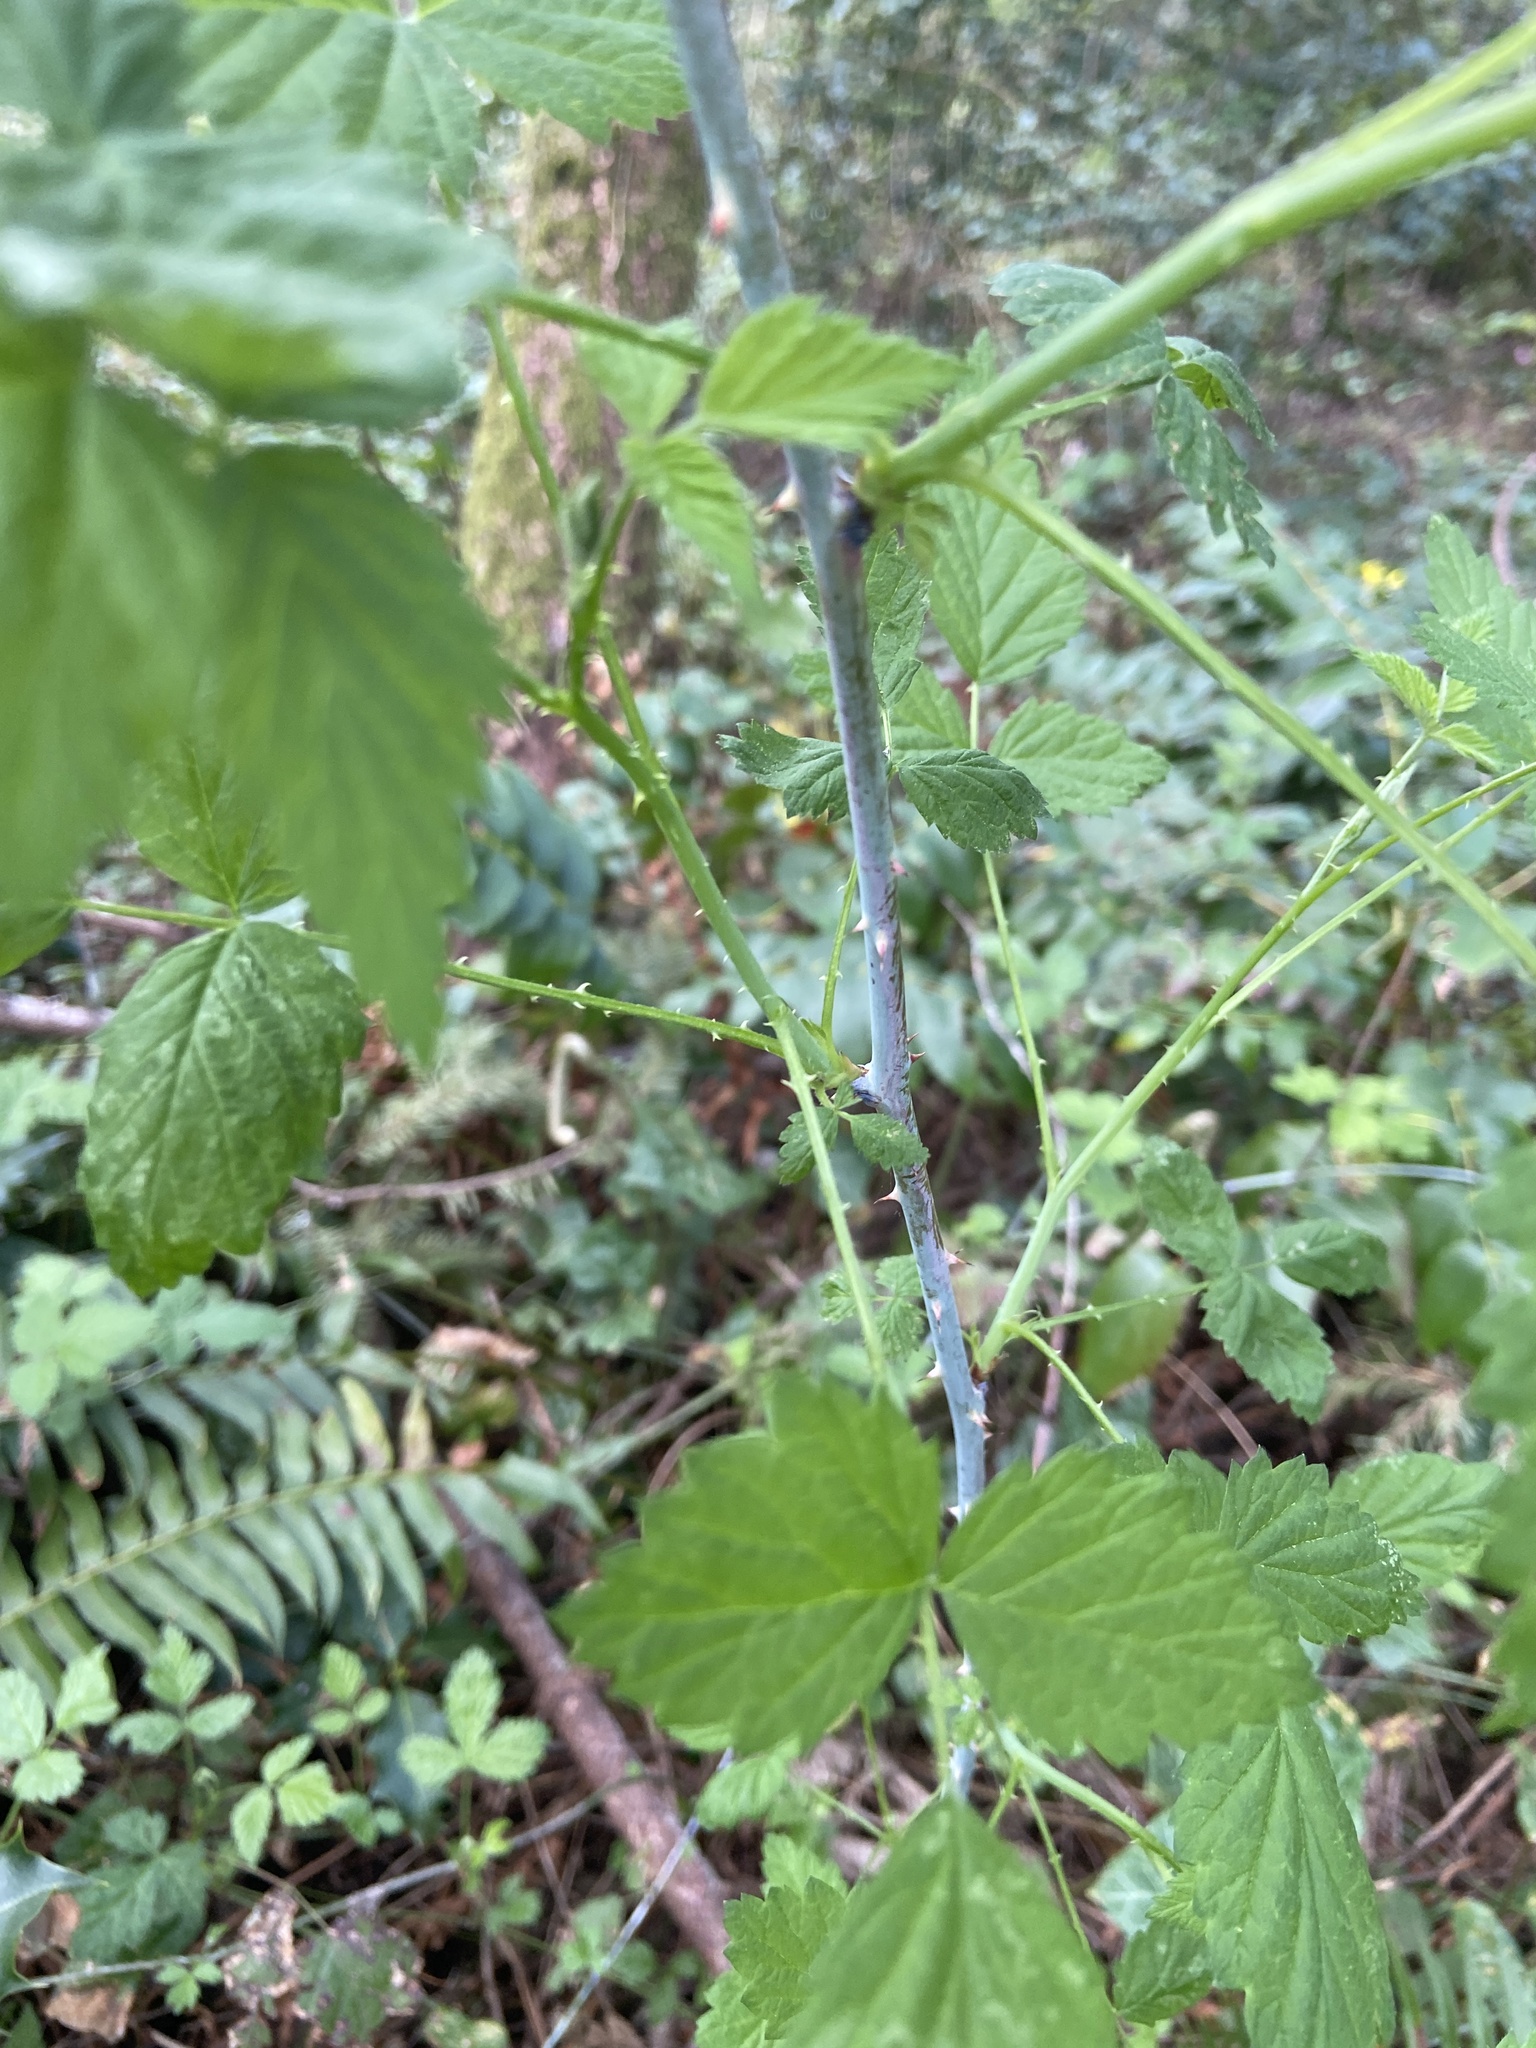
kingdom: Plantae
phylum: Tracheophyta
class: Magnoliopsida
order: Rosales
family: Rosaceae
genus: Rubus
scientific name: Rubus leucodermis
